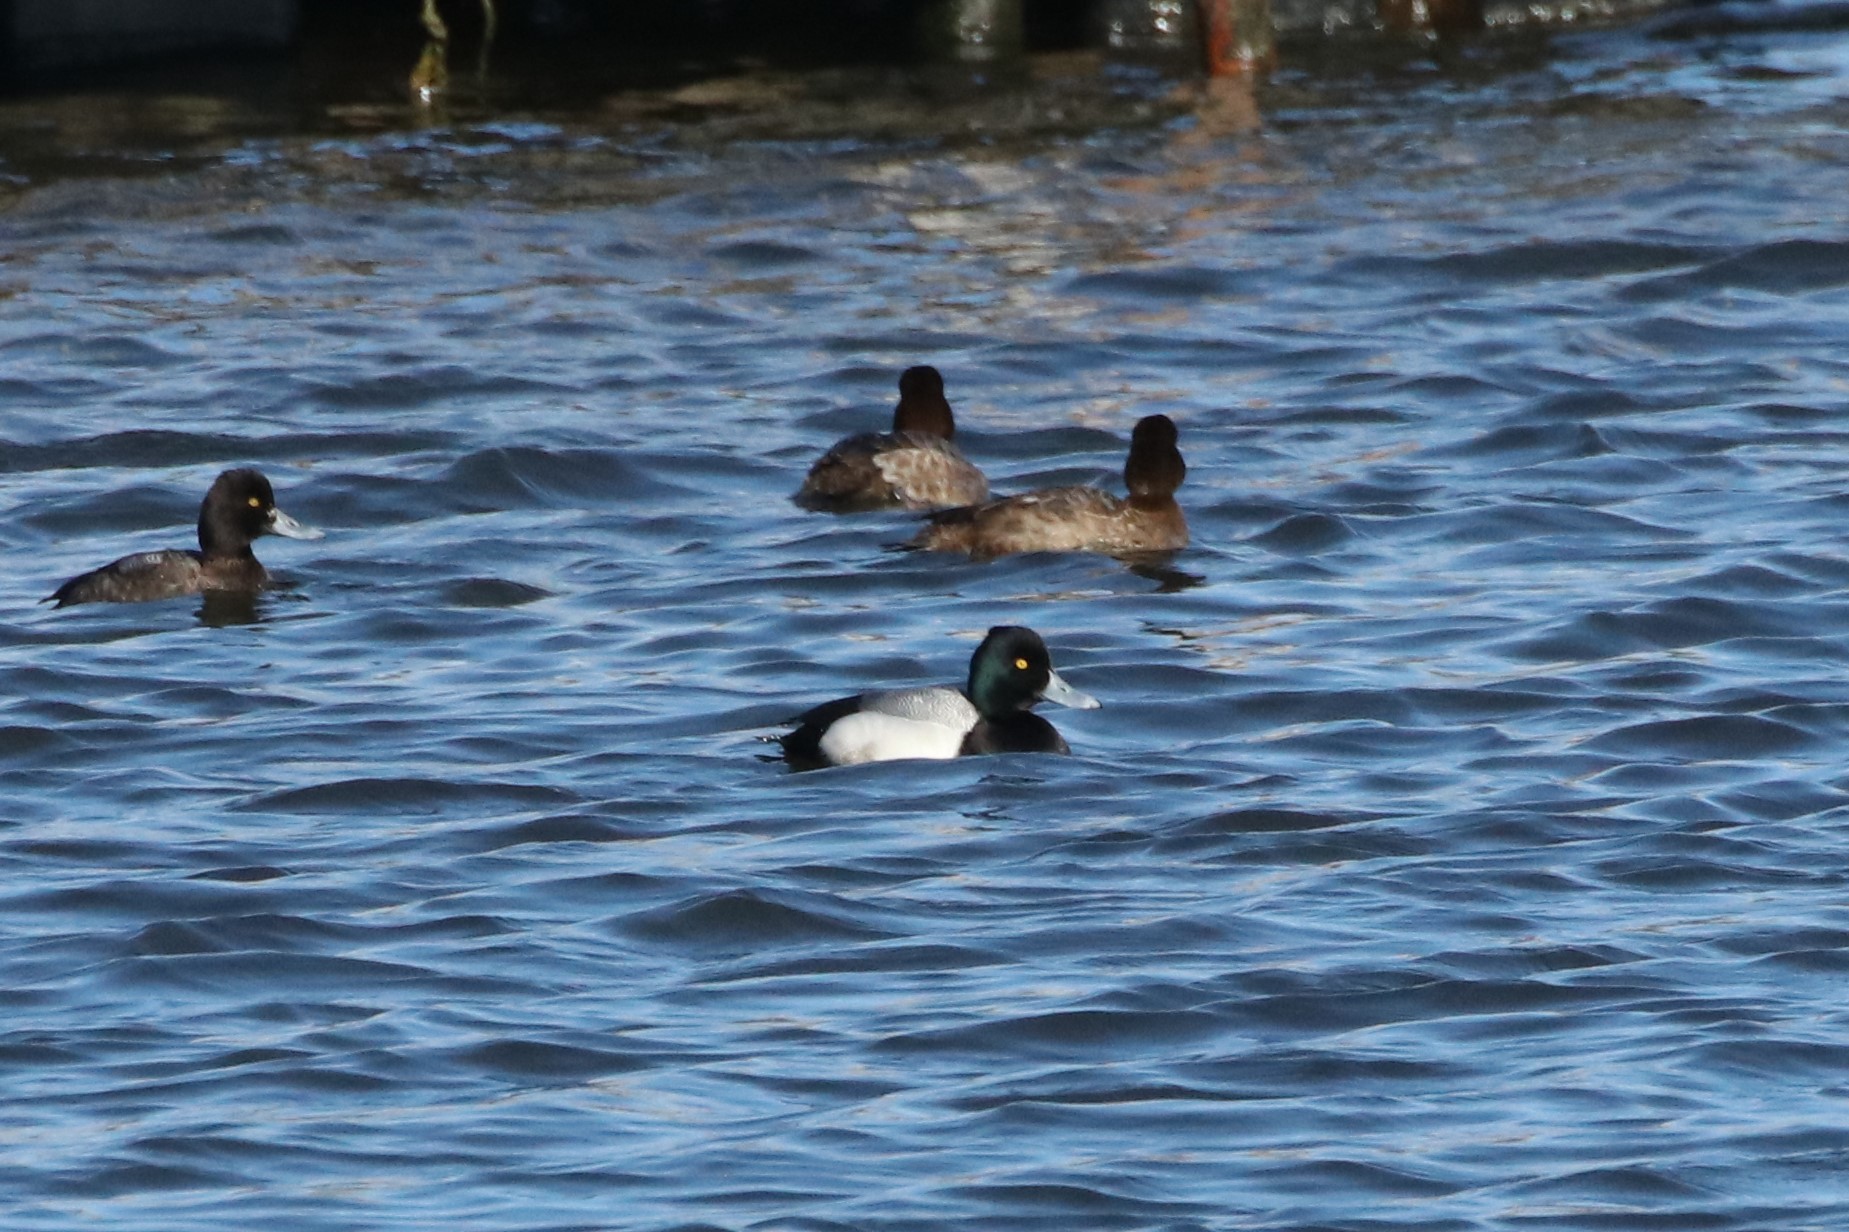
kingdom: Animalia
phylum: Chordata
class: Aves
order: Anseriformes
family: Anatidae
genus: Aythya
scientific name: Aythya marila
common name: Greater scaup
